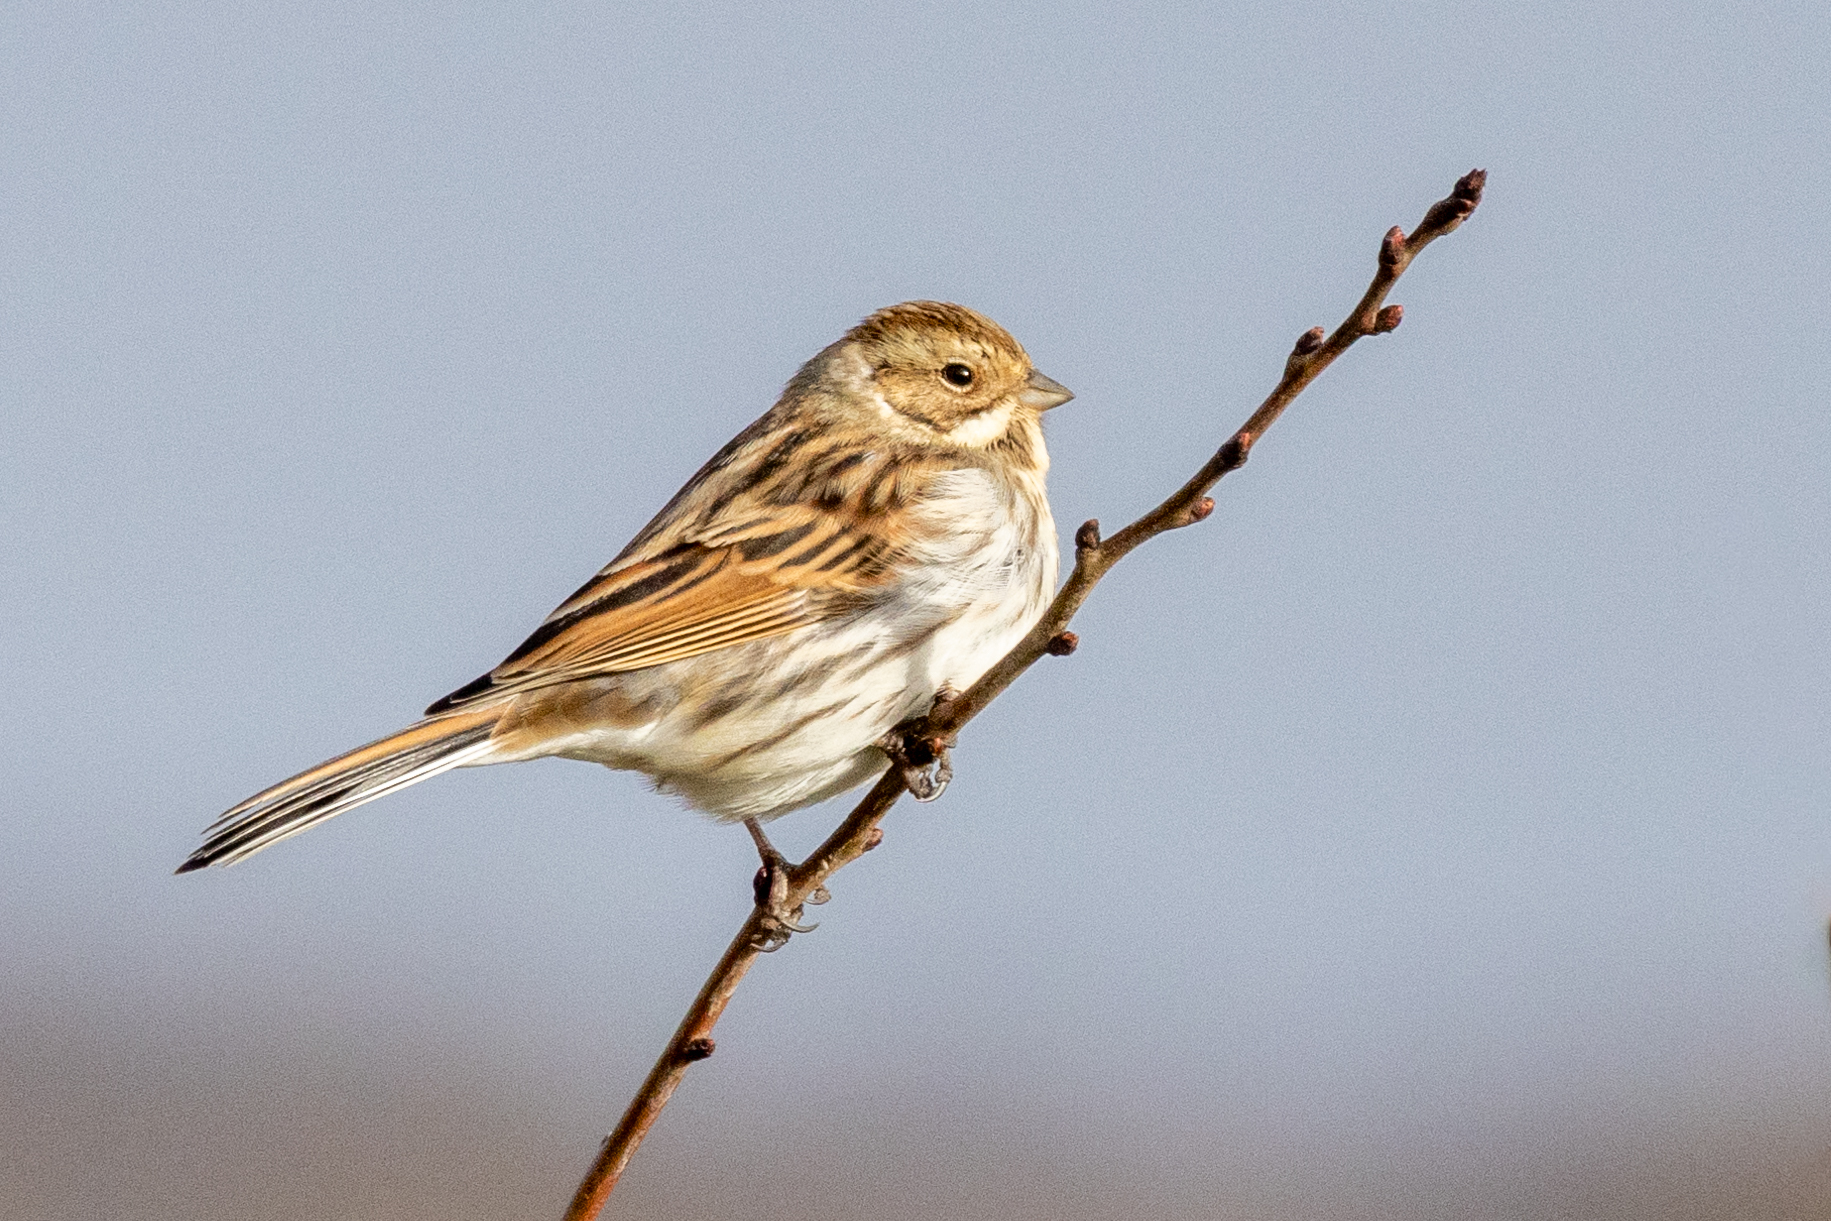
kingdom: Animalia
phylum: Chordata
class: Aves
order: Passeriformes
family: Emberizidae
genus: Emberiza
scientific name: Emberiza schoeniclus
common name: Reed bunting
